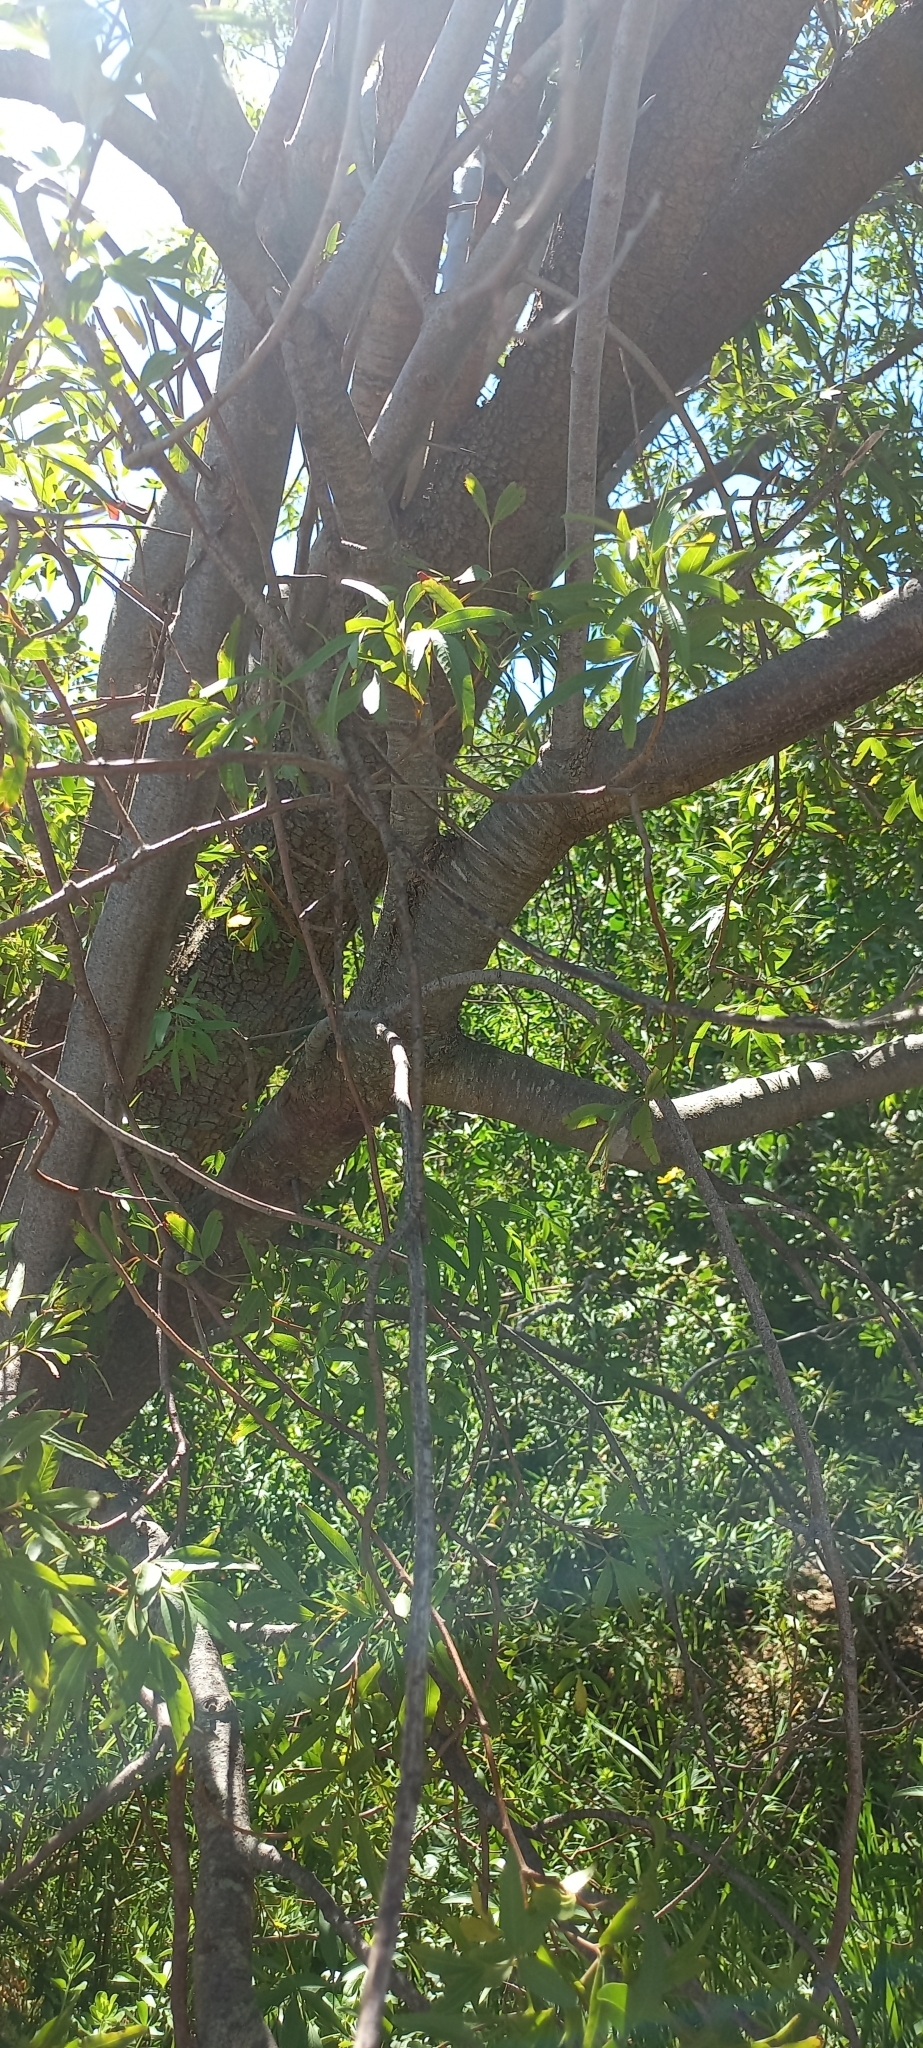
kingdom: Plantae
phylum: Tracheophyta
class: Magnoliopsida
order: Sapindales
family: Anacardiaceae
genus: Searsia
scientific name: Searsia pendulina
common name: White karee
